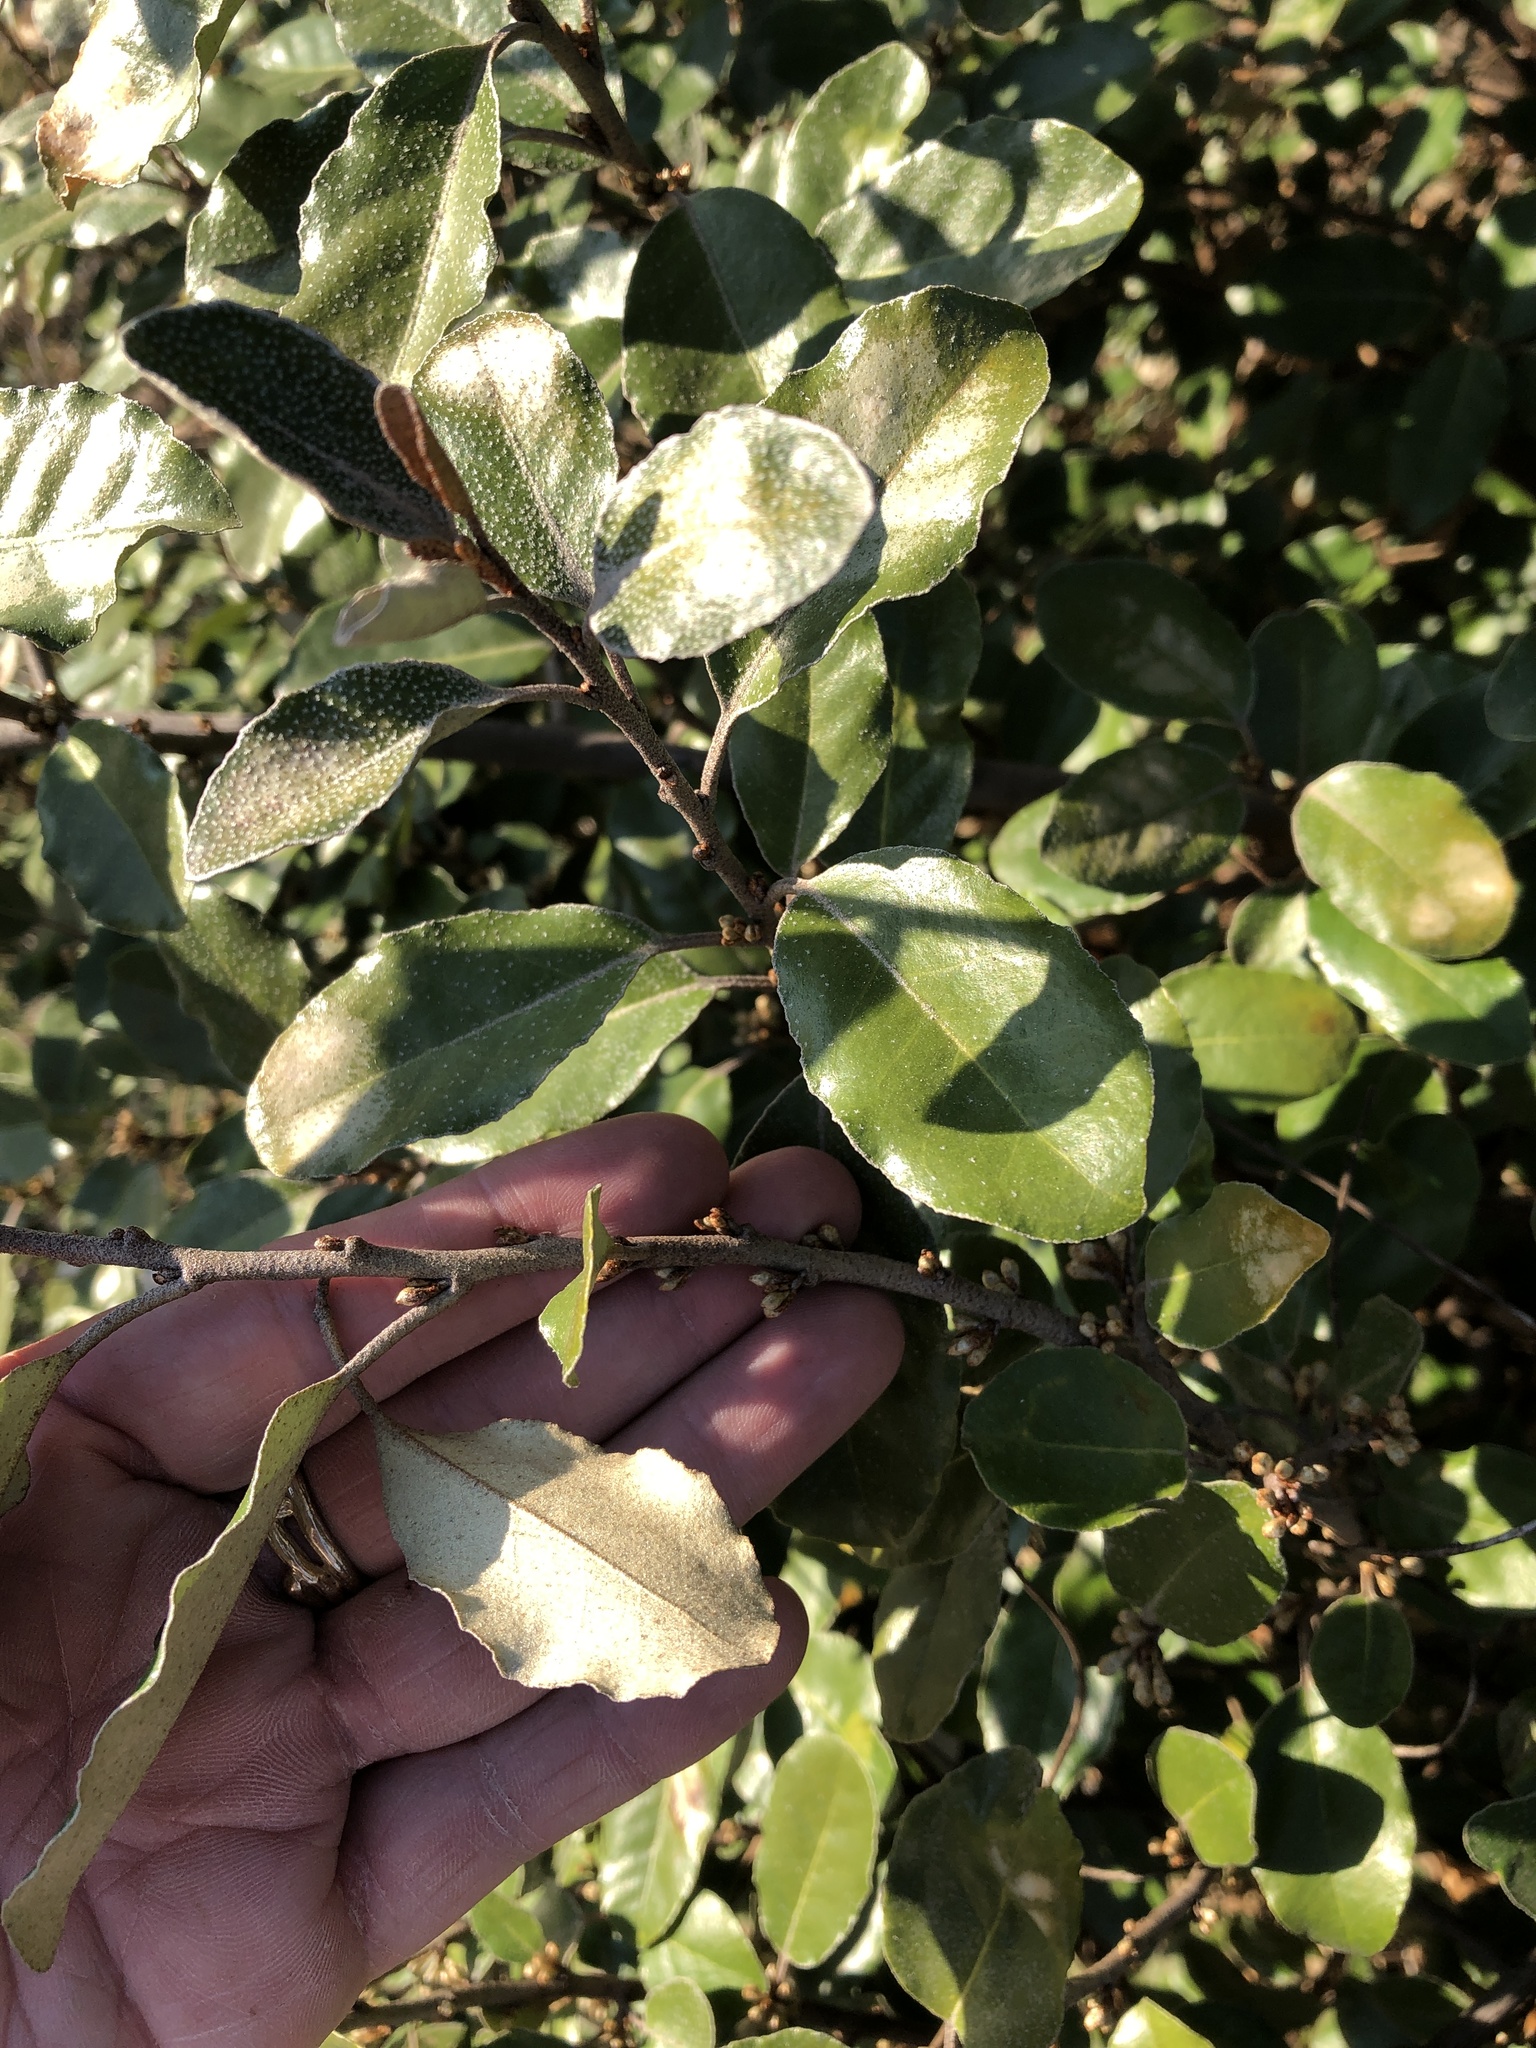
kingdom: Plantae
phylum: Tracheophyta
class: Magnoliopsida
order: Rosales
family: Elaeagnaceae
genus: Elaeagnus
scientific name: Elaeagnus pungens
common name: Spiny oleaster
